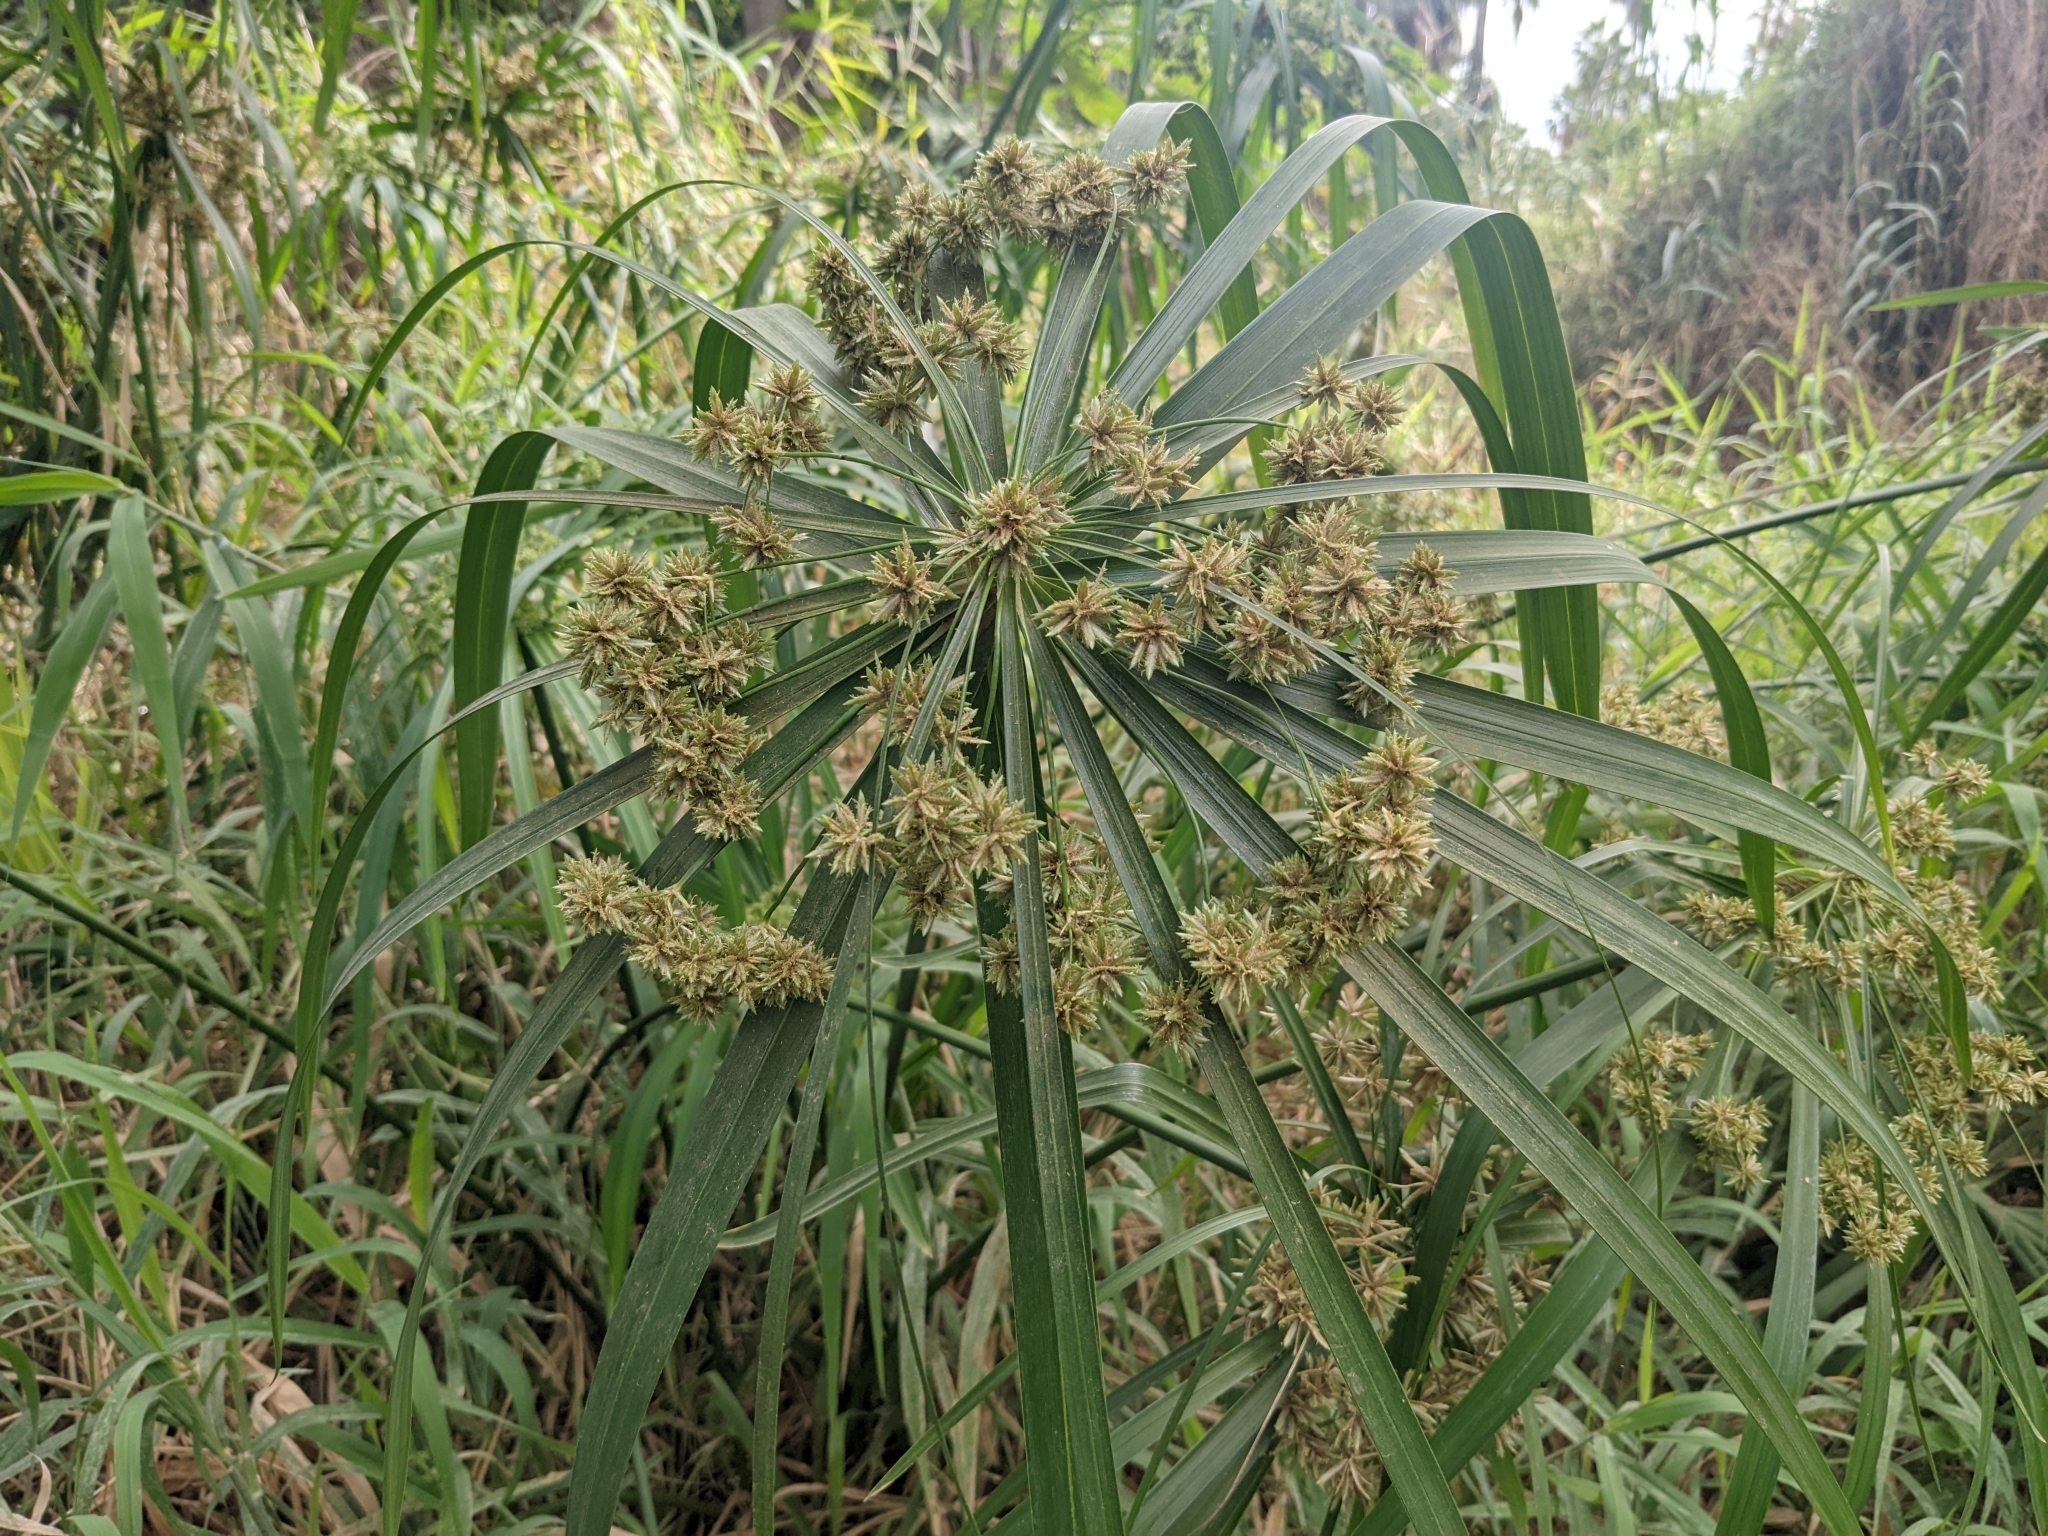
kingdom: Plantae
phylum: Tracheophyta
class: Liliopsida
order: Poales
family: Cyperaceae
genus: Cyperus
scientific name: Cyperus alternifolius
